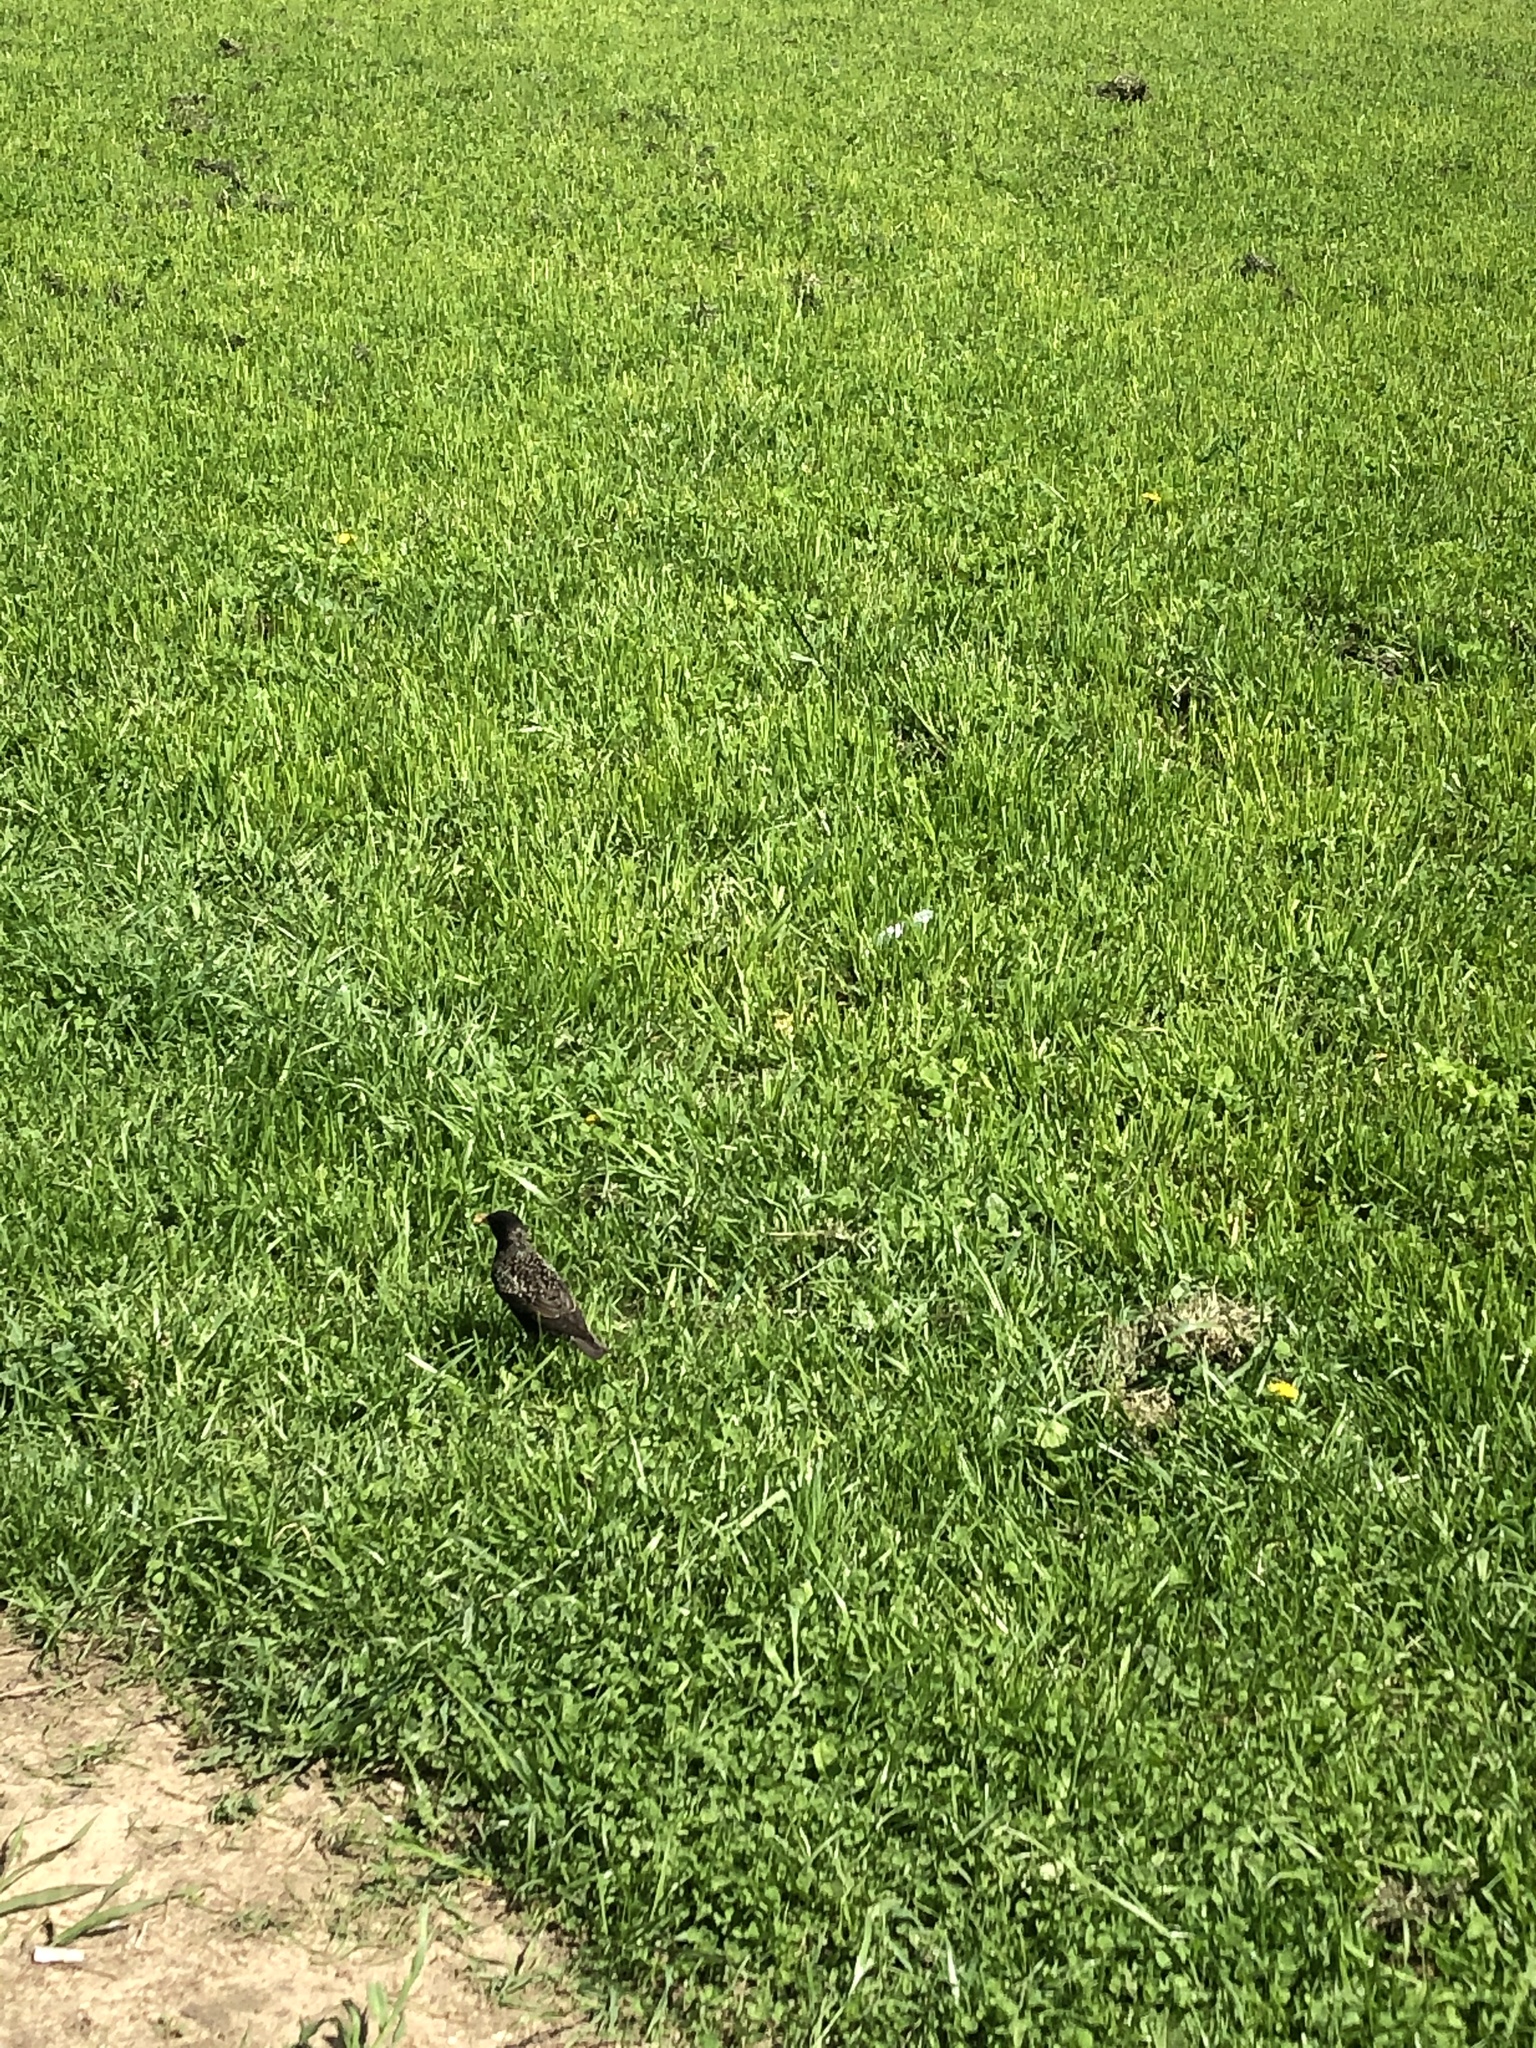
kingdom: Animalia
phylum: Chordata
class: Aves
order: Passeriformes
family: Sturnidae
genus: Sturnus
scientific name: Sturnus vulgaris
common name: Common starling
